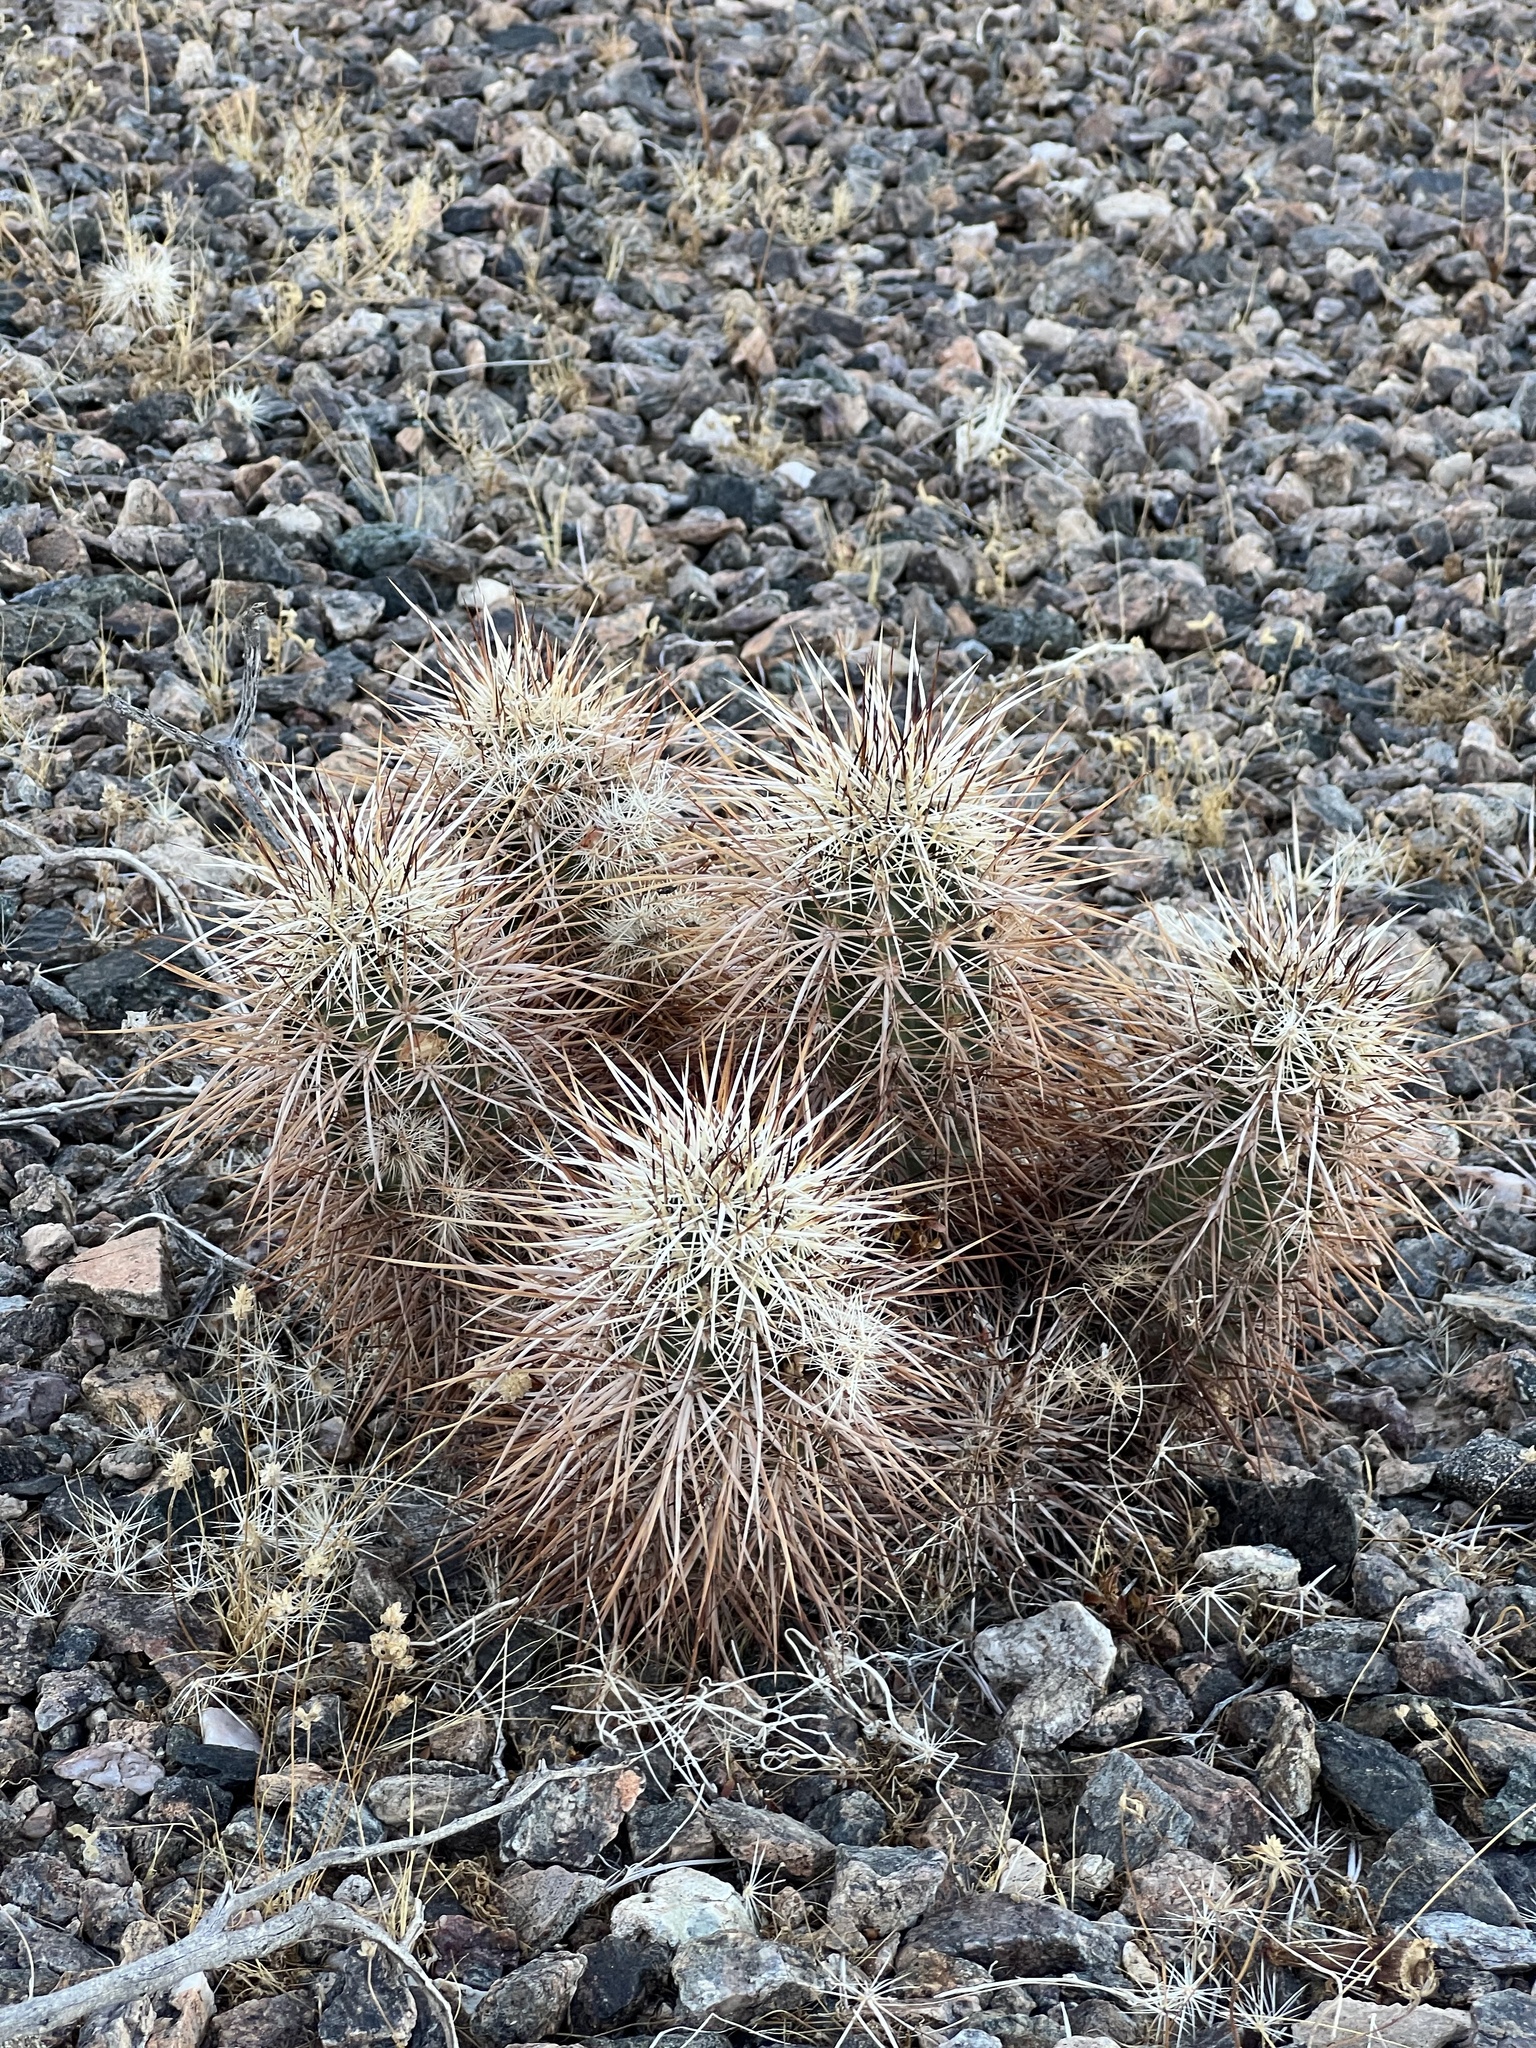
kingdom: Plantae
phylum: Tracheophyta
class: Magnoliopsida
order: Caryophyllales
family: Cactaceae
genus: Echinocereus
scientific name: Echinocereus engelmannii
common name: Engelmann's hedgehog cactus
